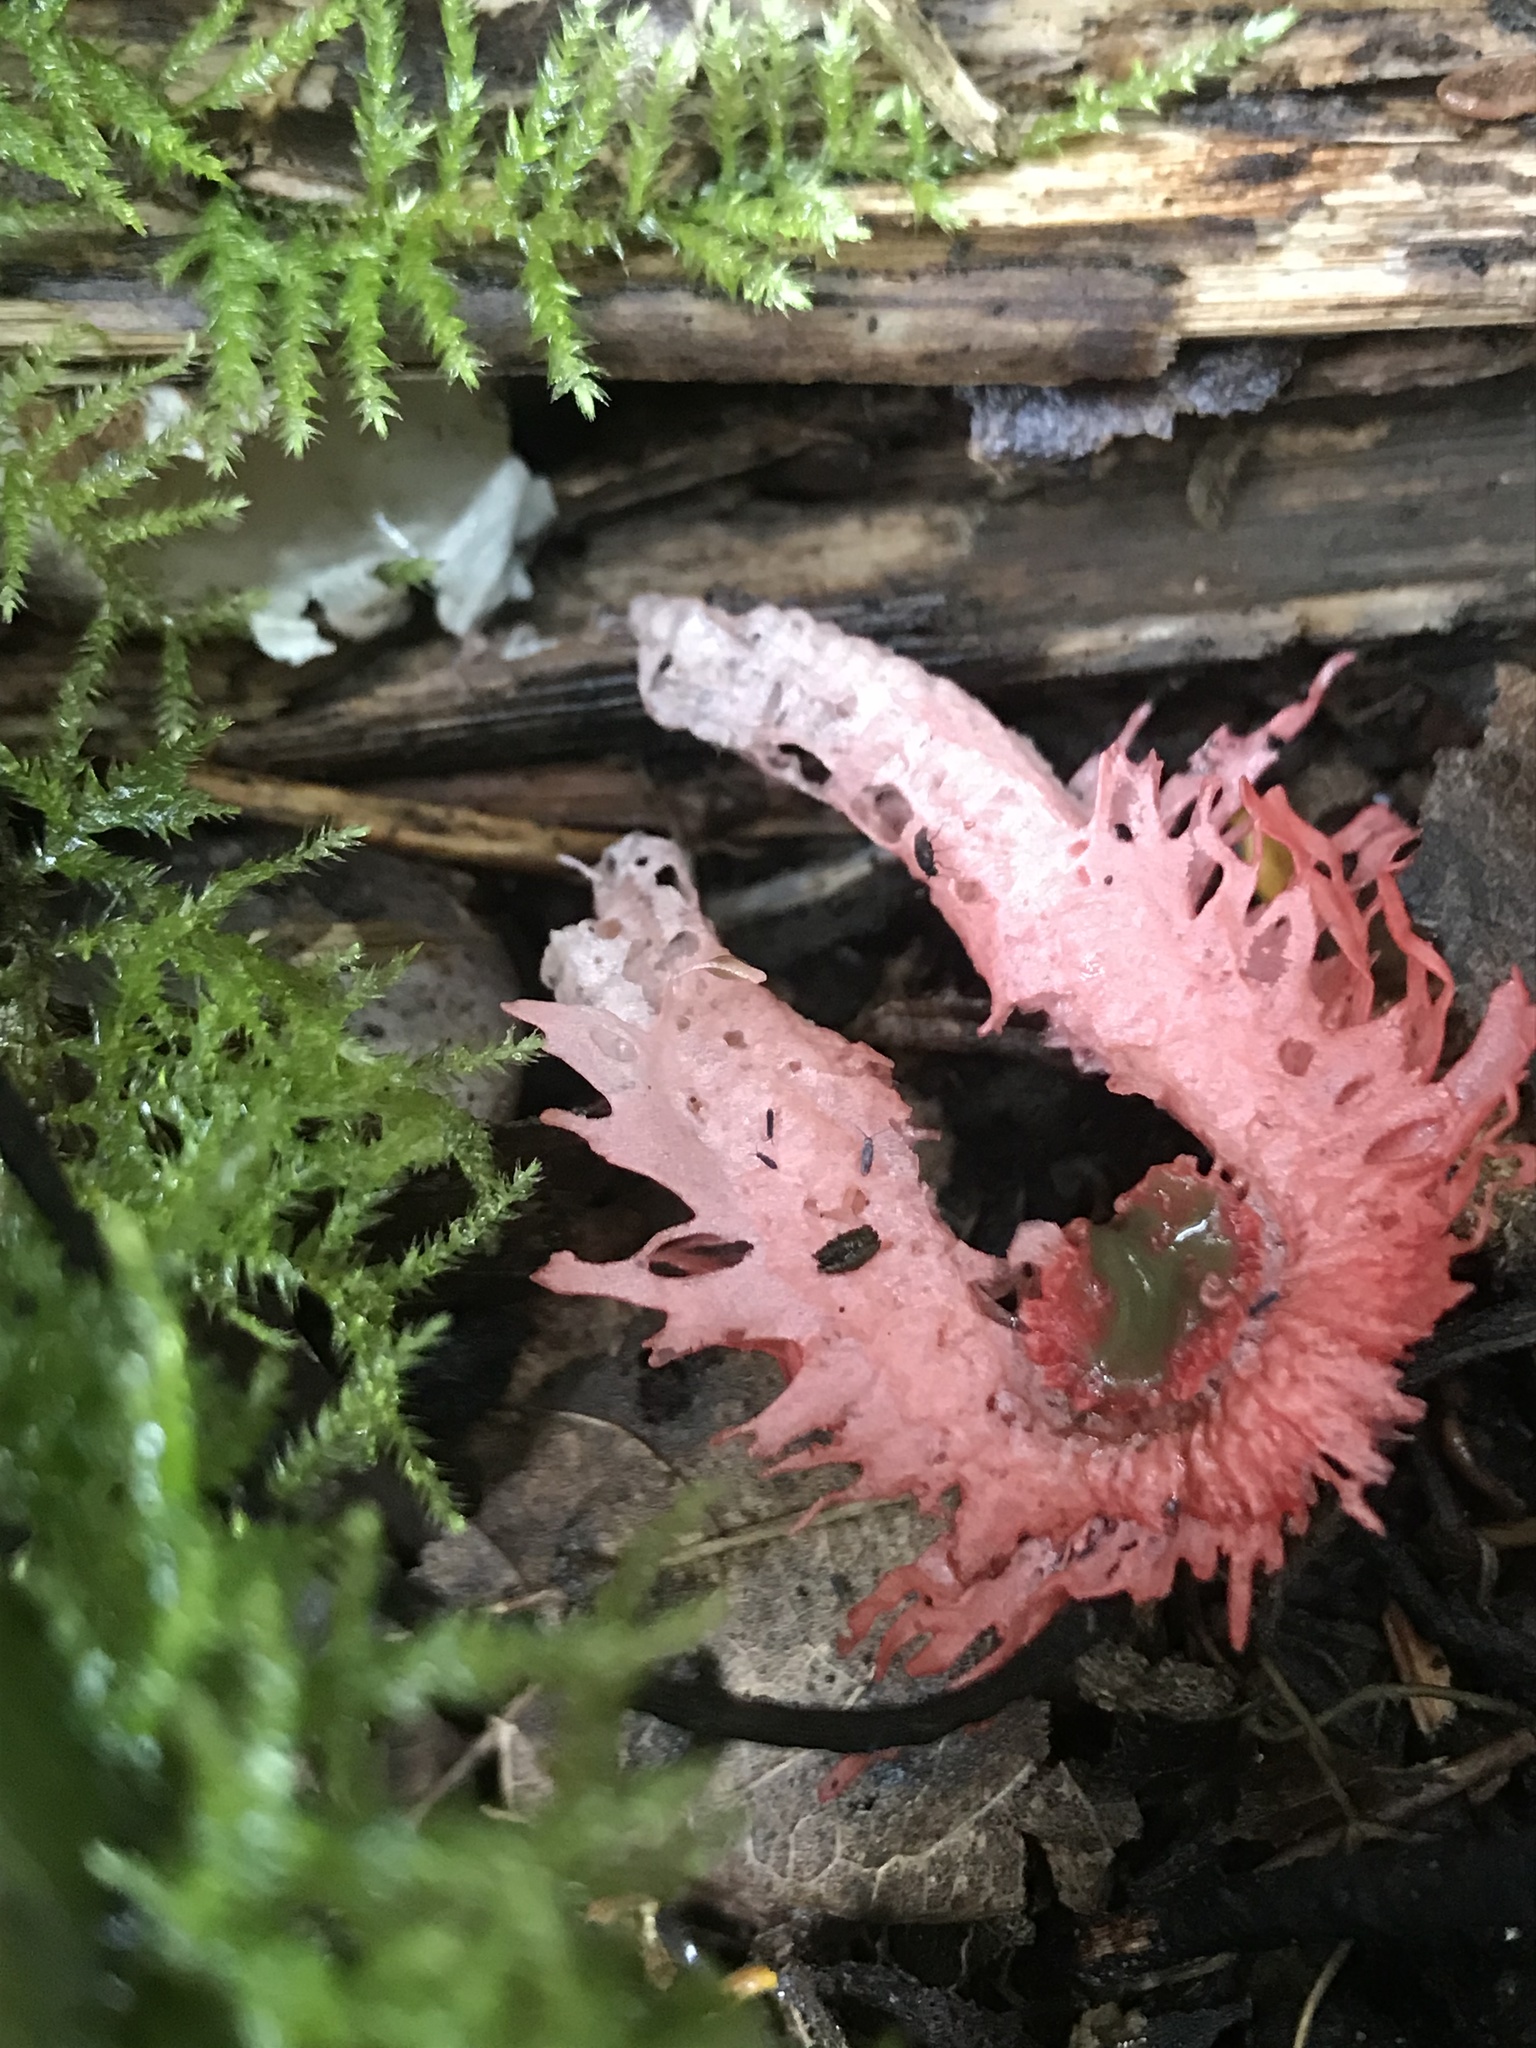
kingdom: Fungi
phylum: Basidiomycota
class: Agaricomycetes
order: Phallales
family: Phallaceae
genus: Laternea
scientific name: Laternea pusilla
